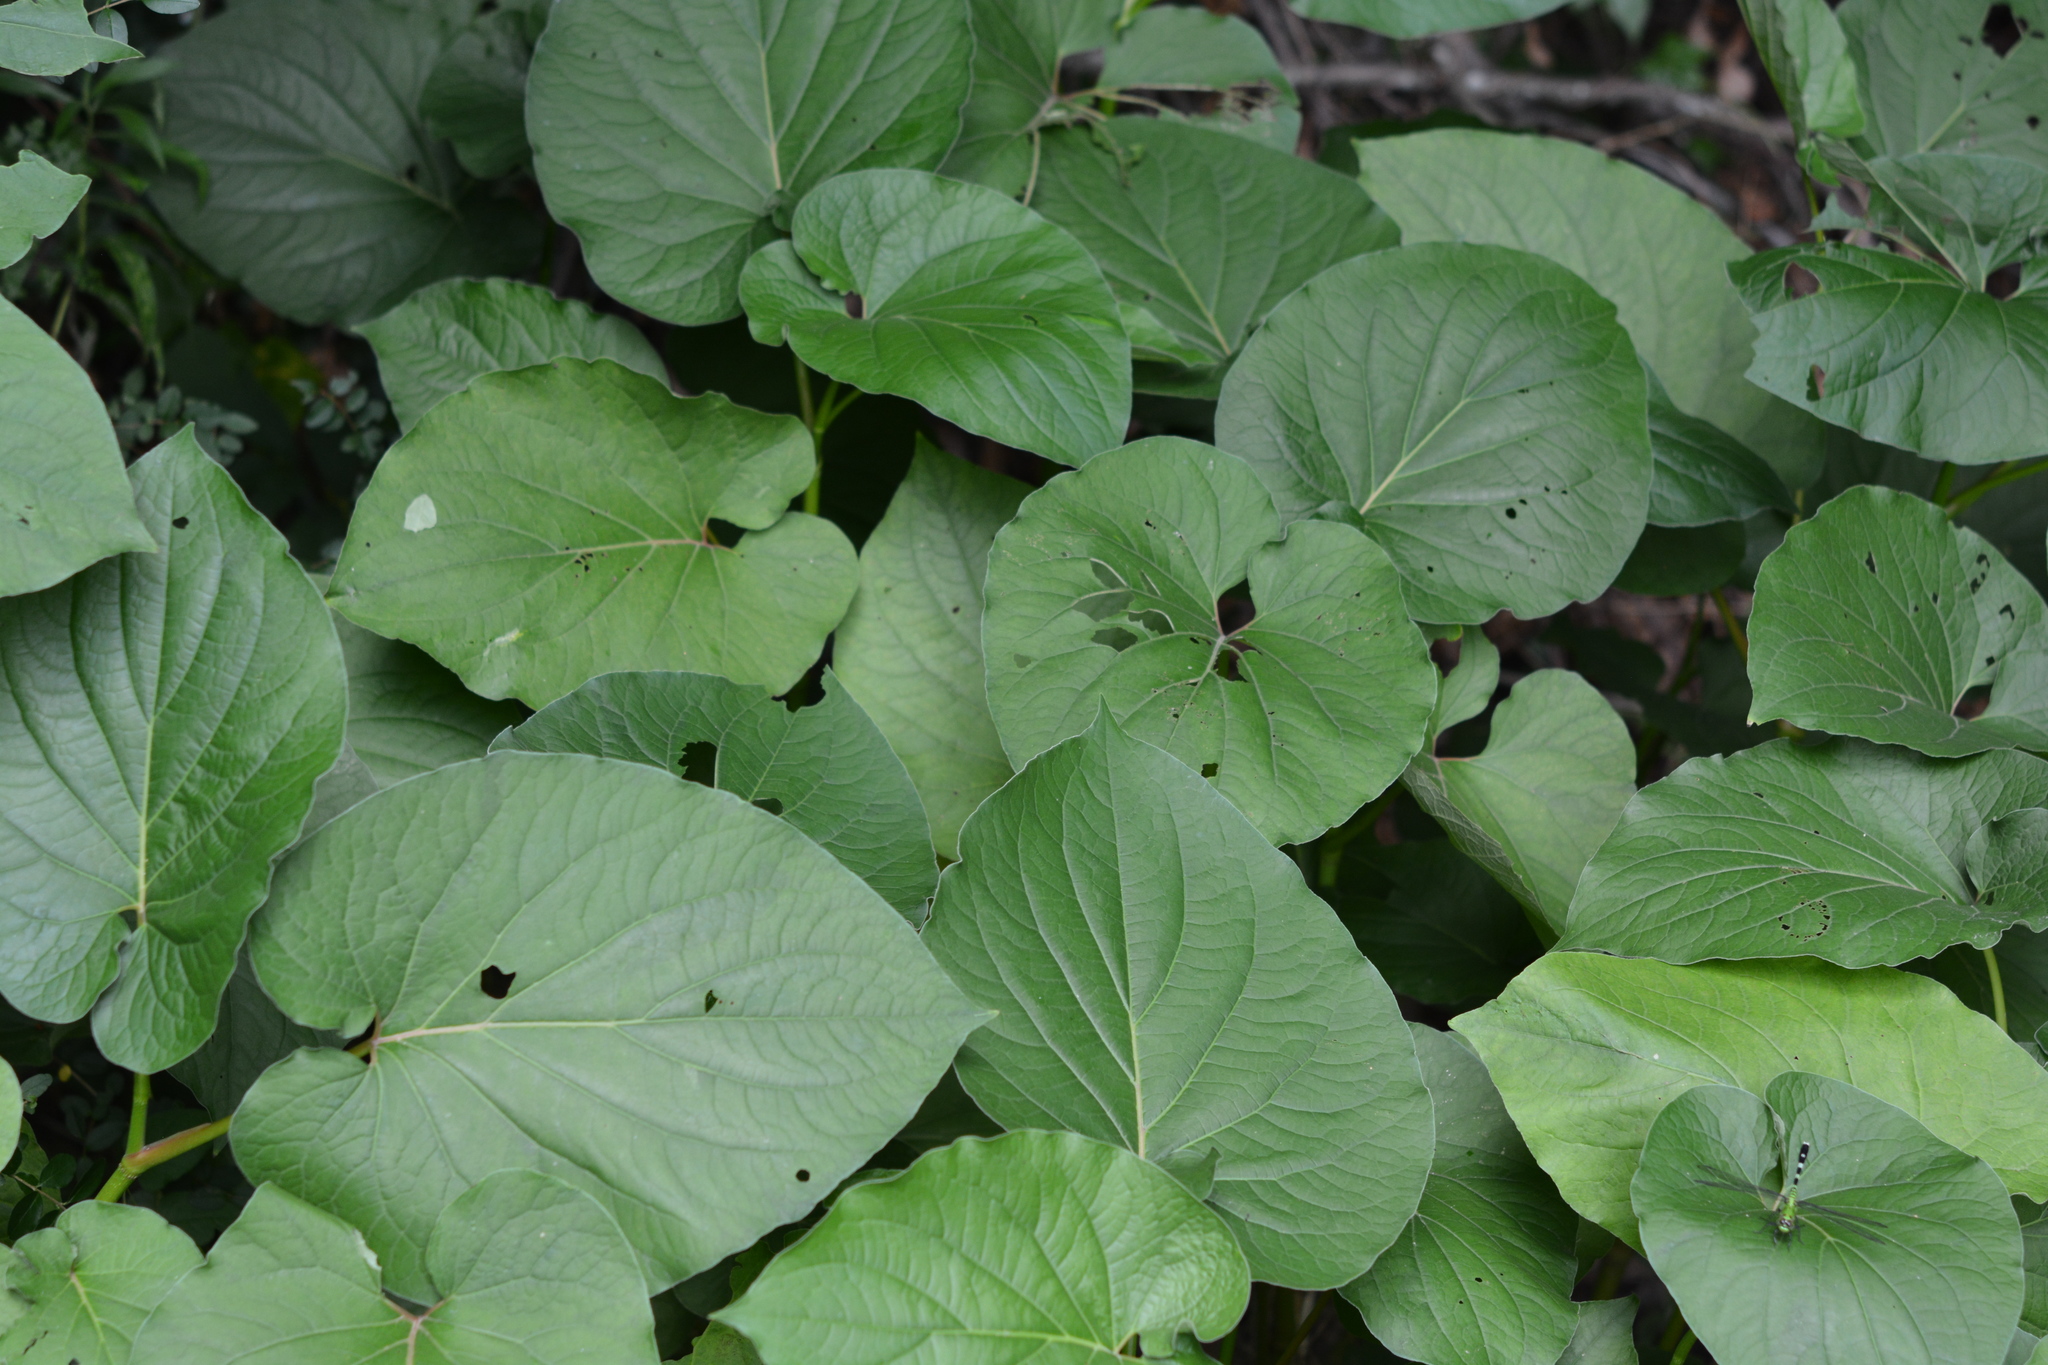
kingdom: Plantae
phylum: Tracheophyta
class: Magnoliopsida
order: Piperales
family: Piperaceae
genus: Piper
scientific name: Piper auritum
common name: Vera cruz pepper
